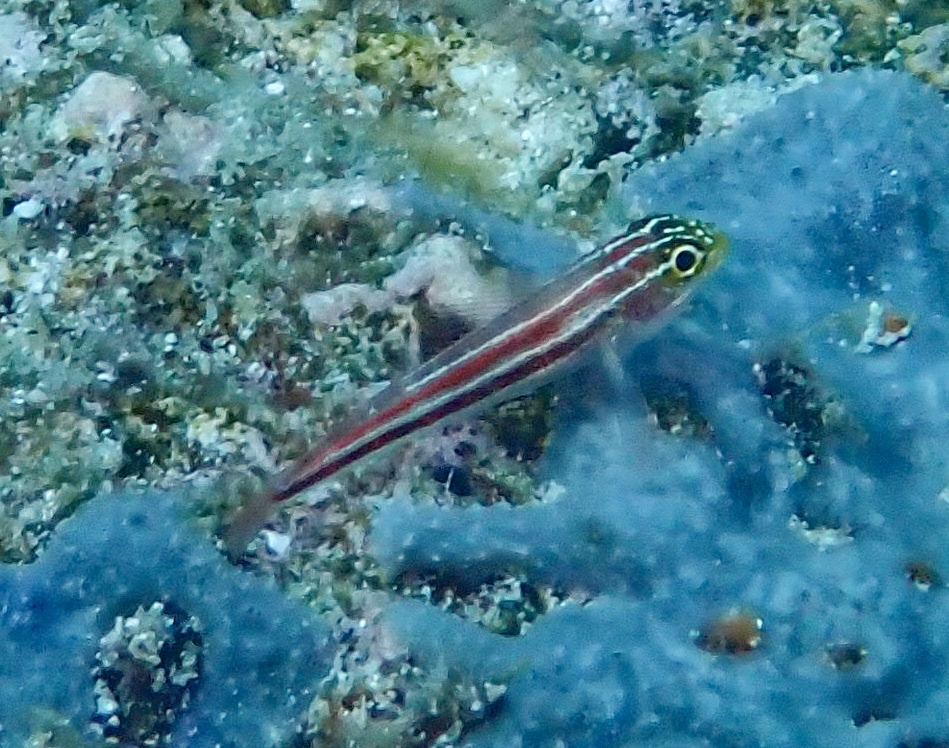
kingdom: Animalia
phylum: Chordata
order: Perciformes
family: Tripterygiidae
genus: Helcogramma
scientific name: Helcogramma striata
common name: Striped threefin
